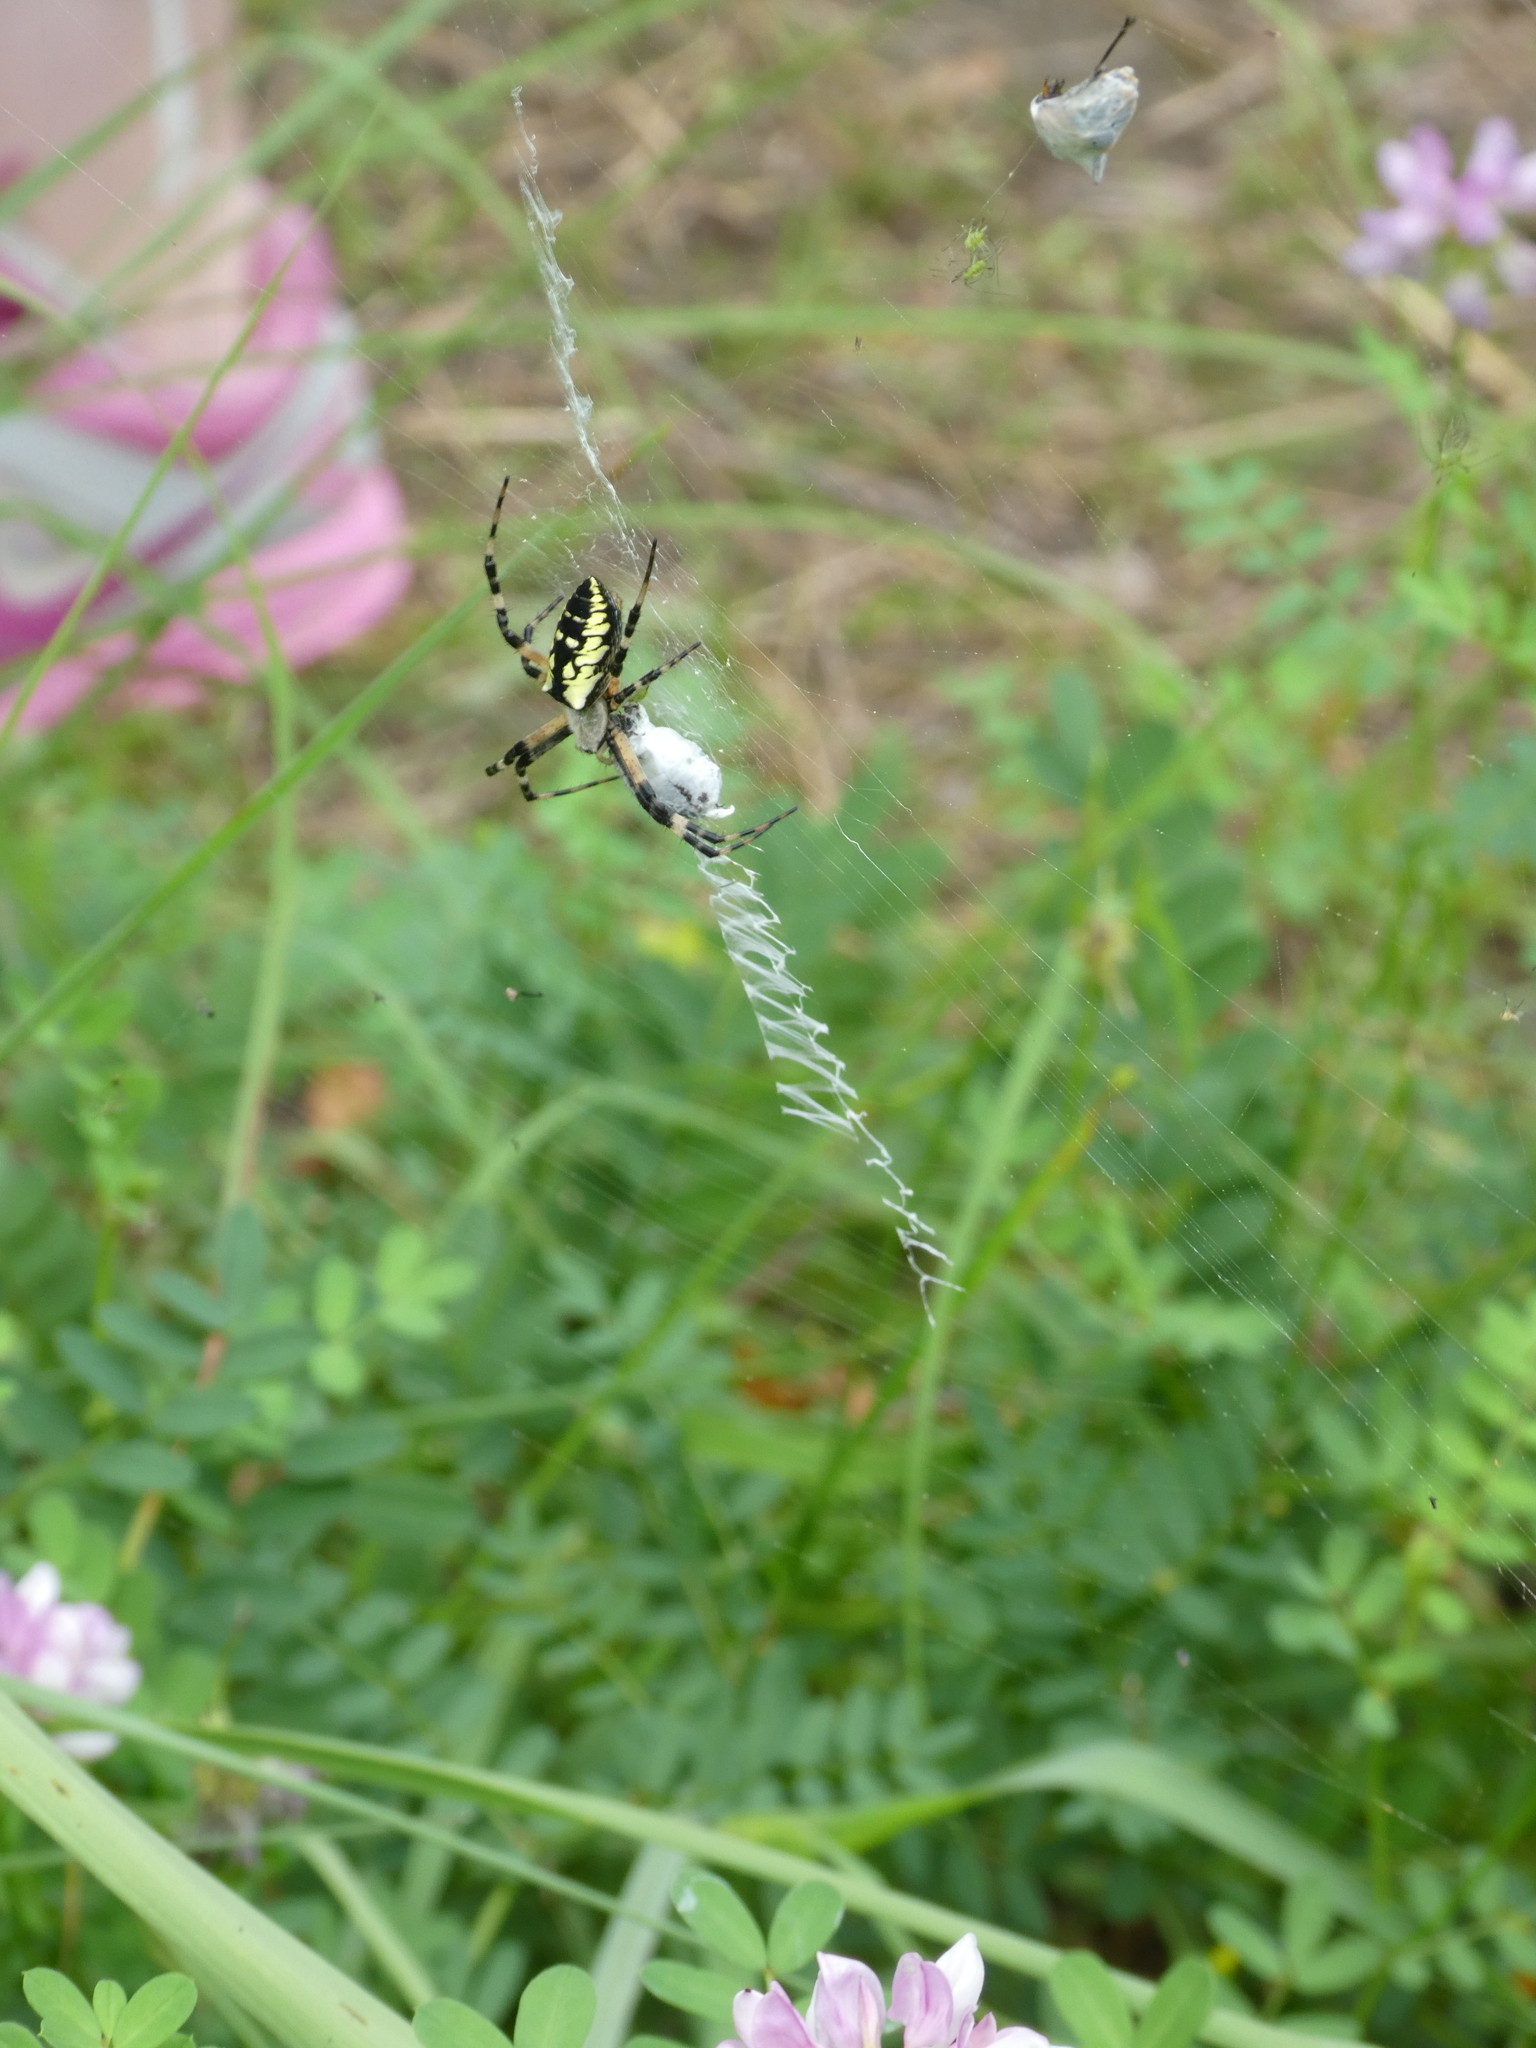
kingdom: Animalia
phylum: Arthropoda
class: Arachnida
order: Araneae
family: Araneidae
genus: Argiope
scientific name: Argiope aurantia
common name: Orb weavers
